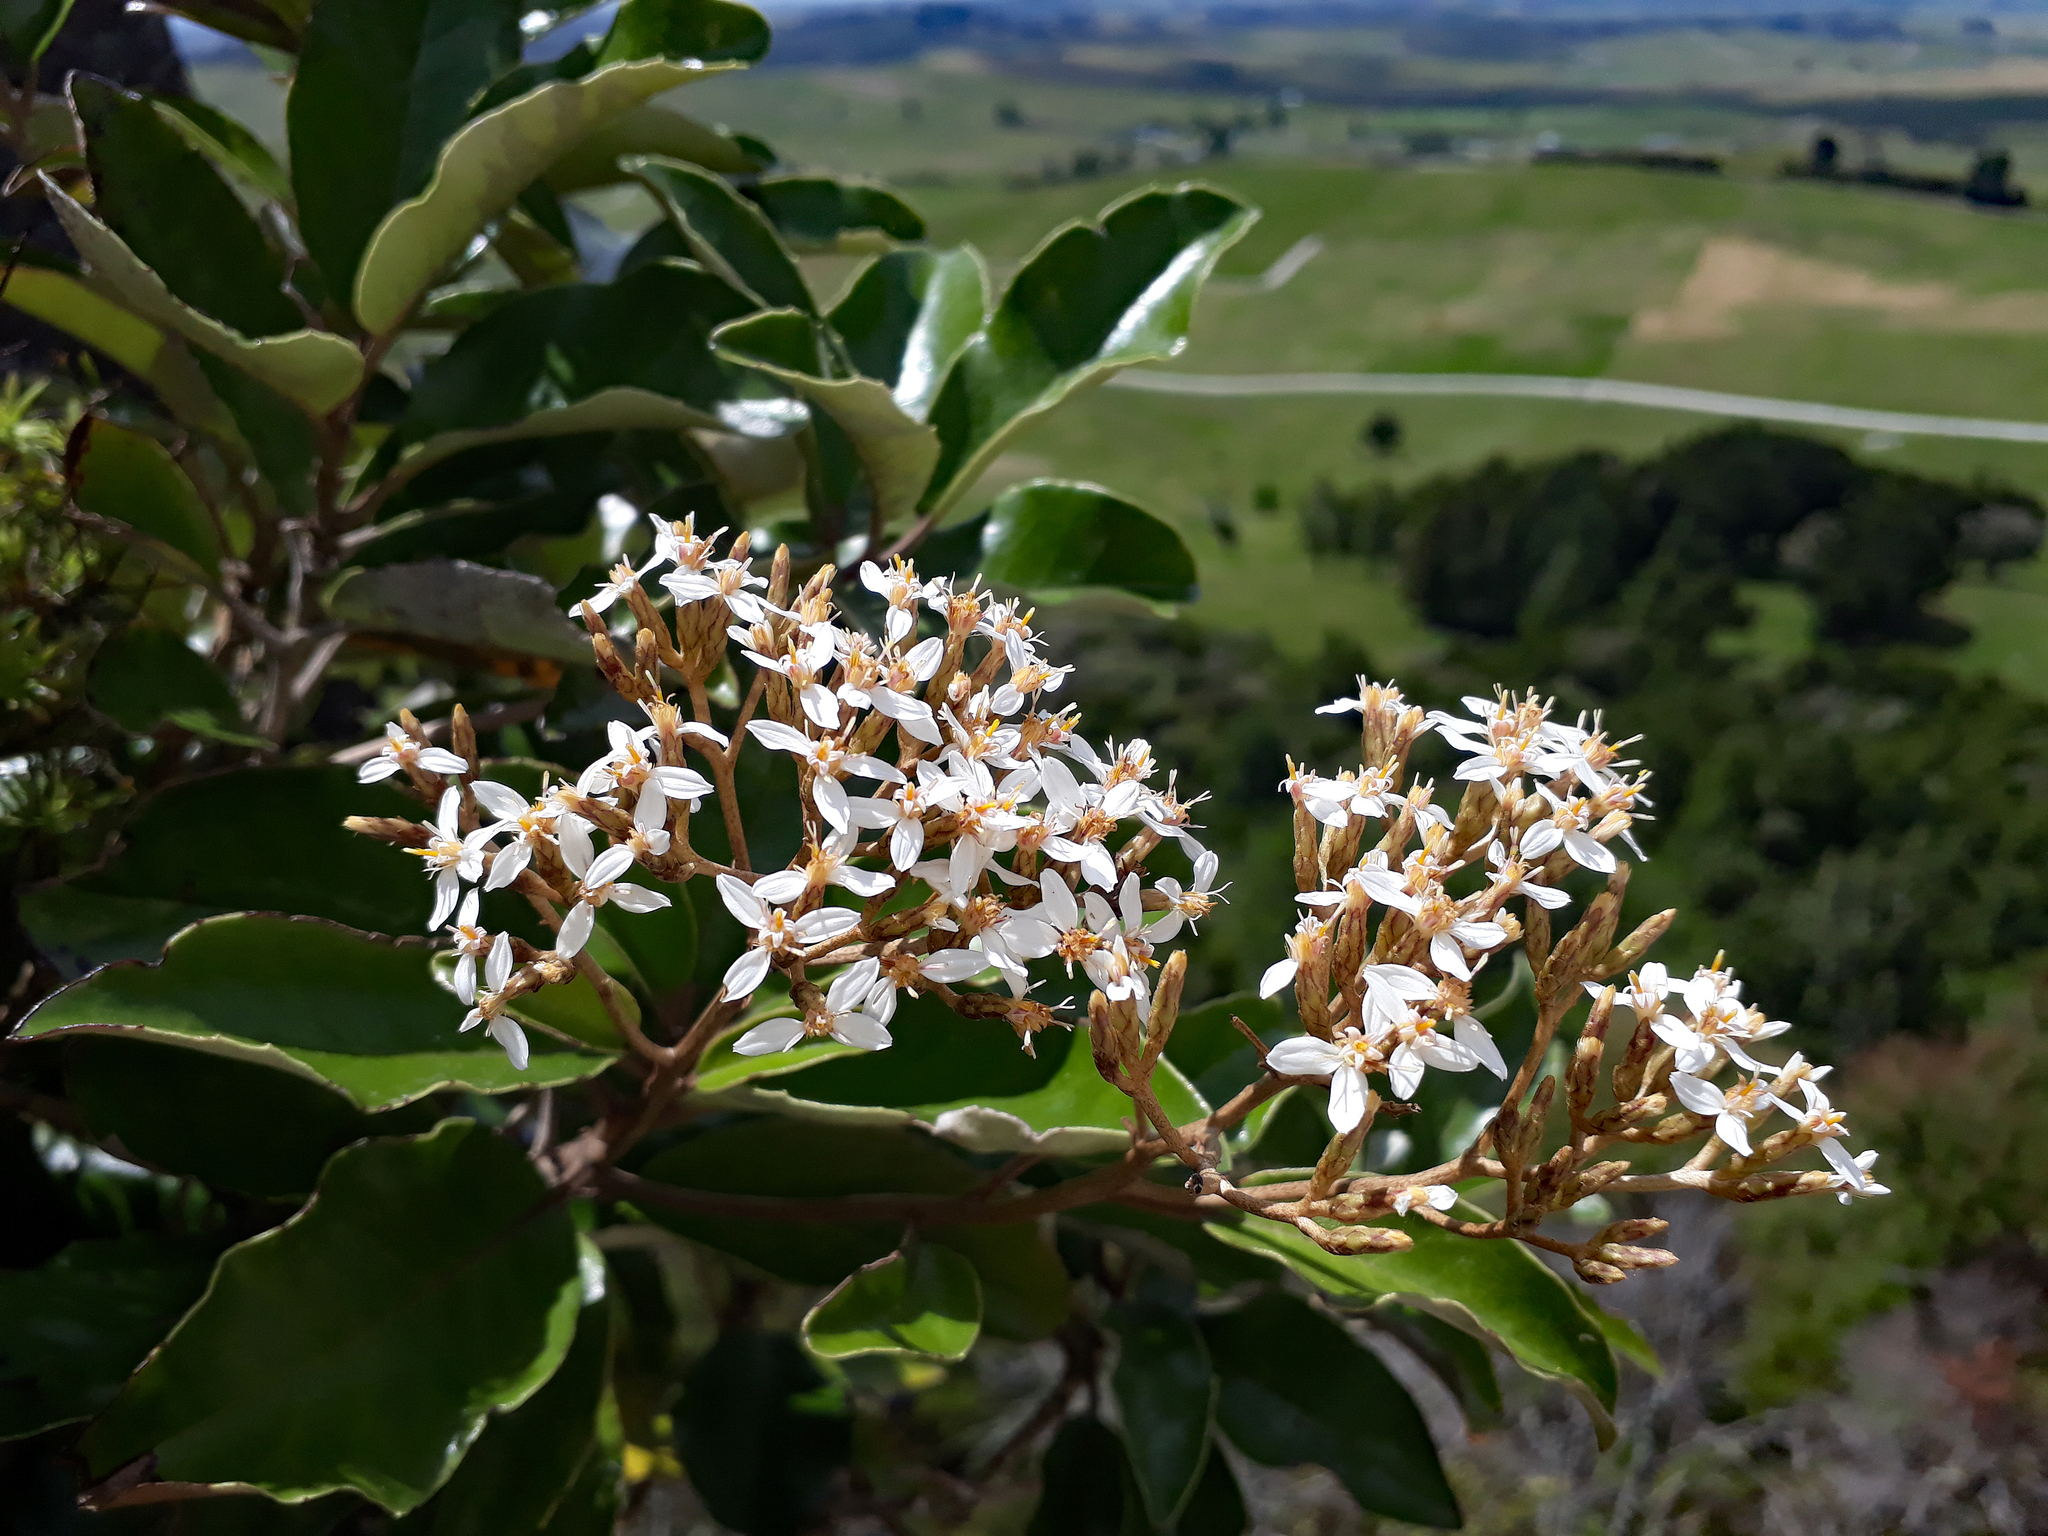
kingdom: Plantae
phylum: Tracheophyta
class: Magnoliopsida
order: Asterales
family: Asteraceae
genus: Olearia
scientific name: Olearia furfuracea
